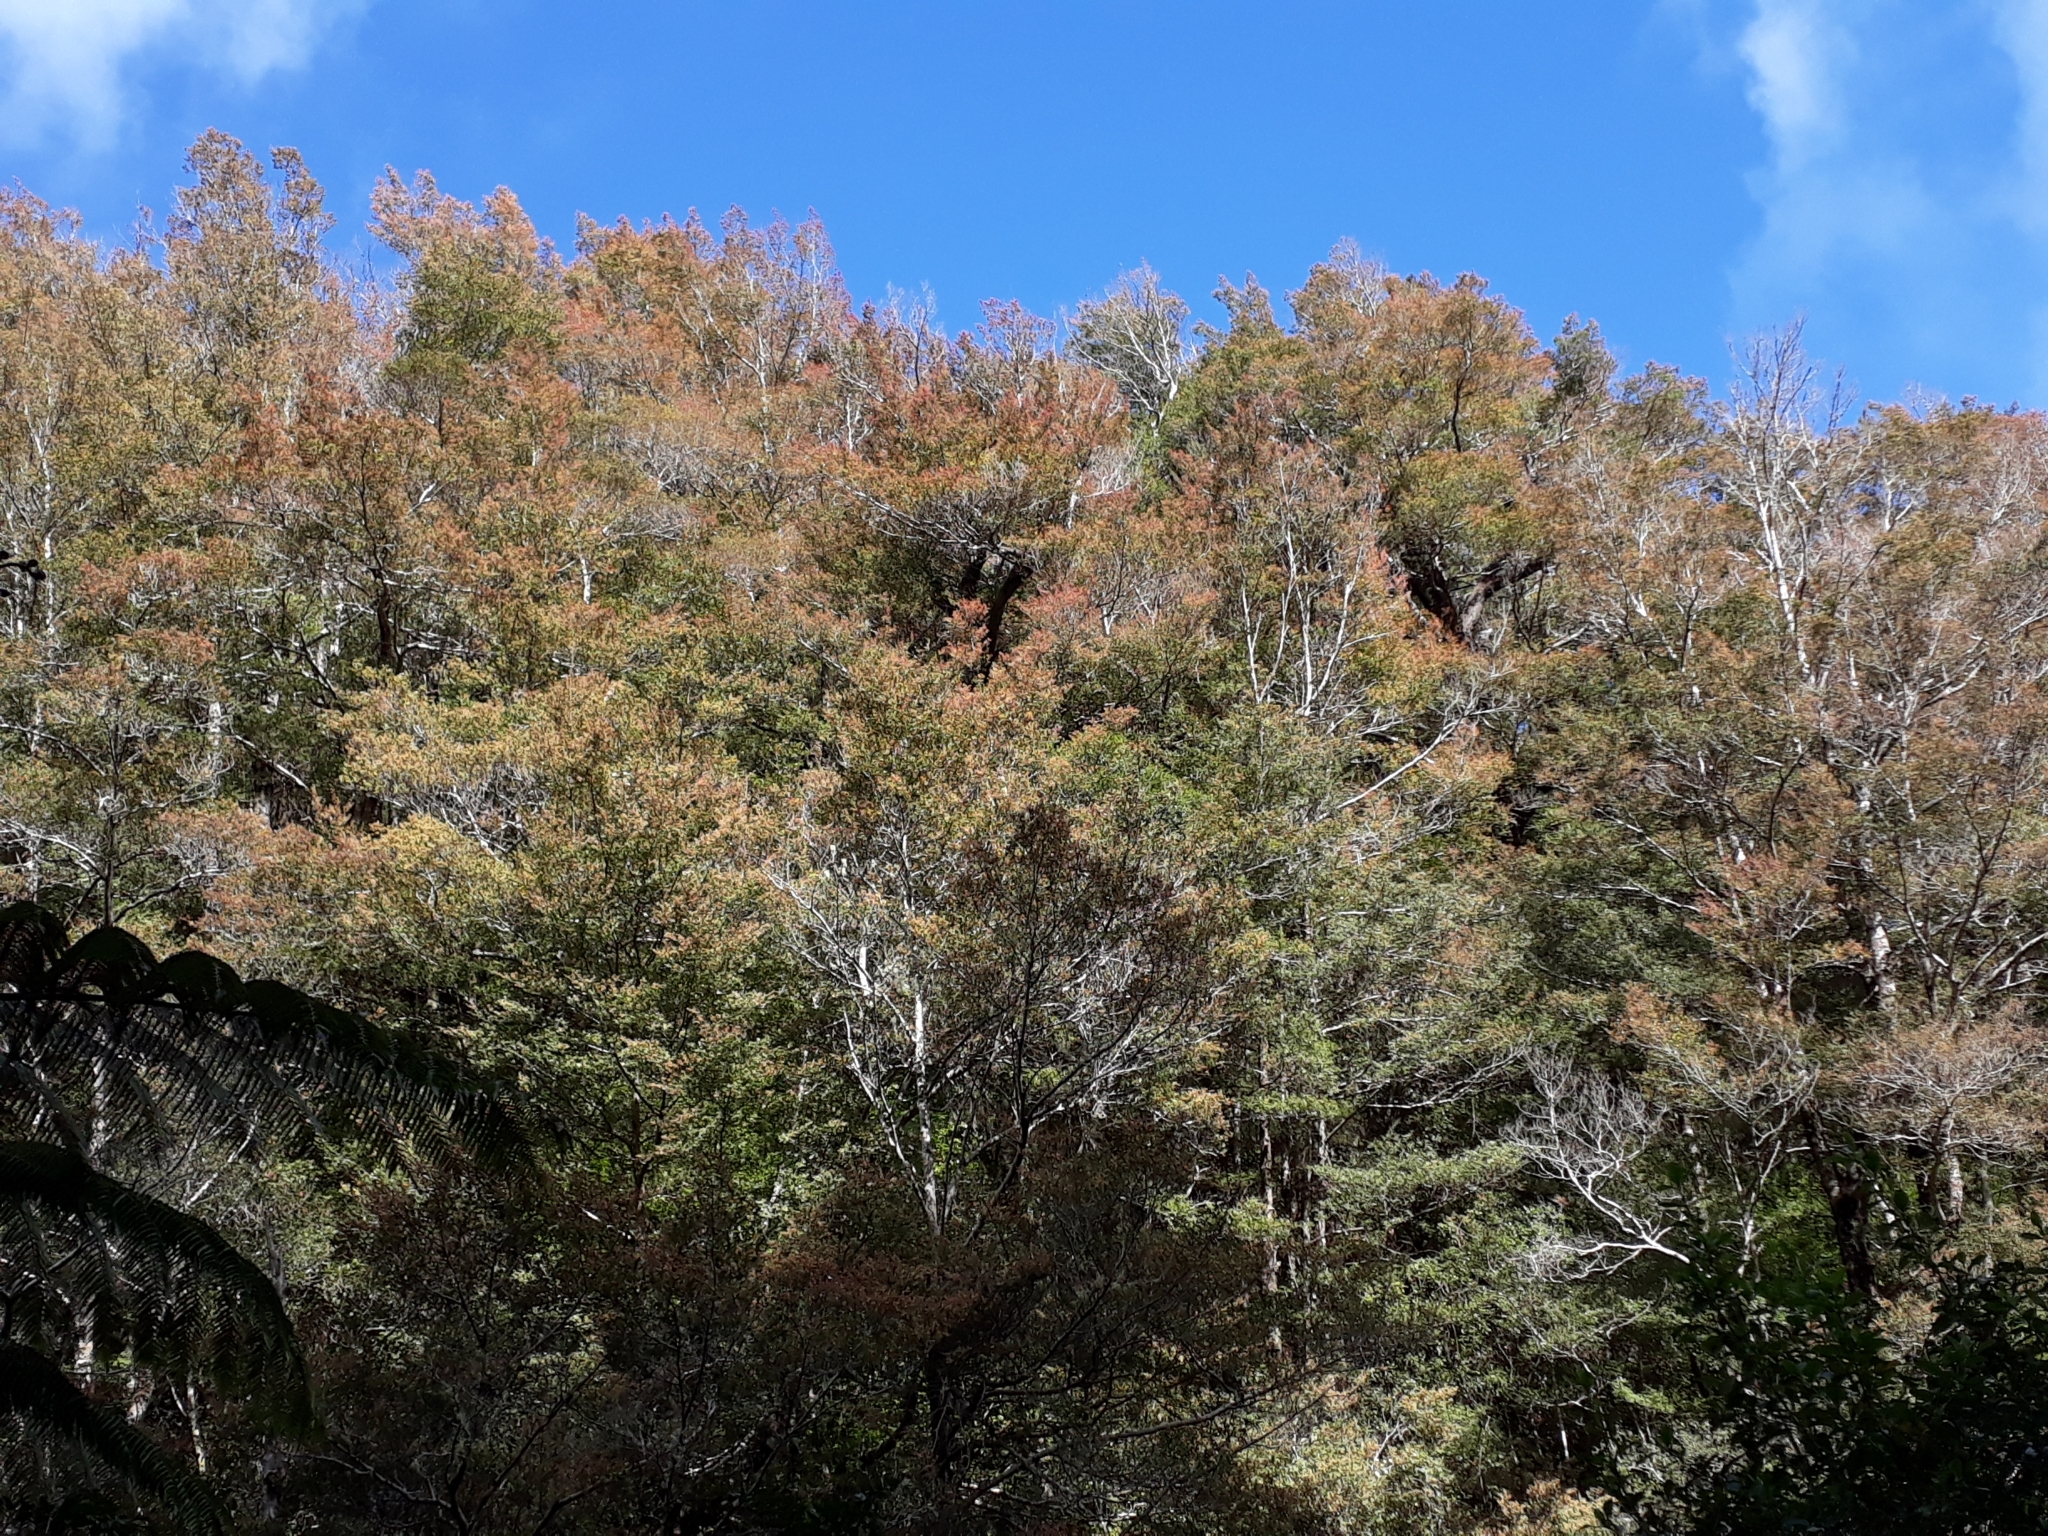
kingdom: Plantae
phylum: Tracheophyta
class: Magnoliopsida
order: Fagales
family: Nothofagaceae
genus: Nothofagus
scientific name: Nothofagus truncata
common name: Hard beech
